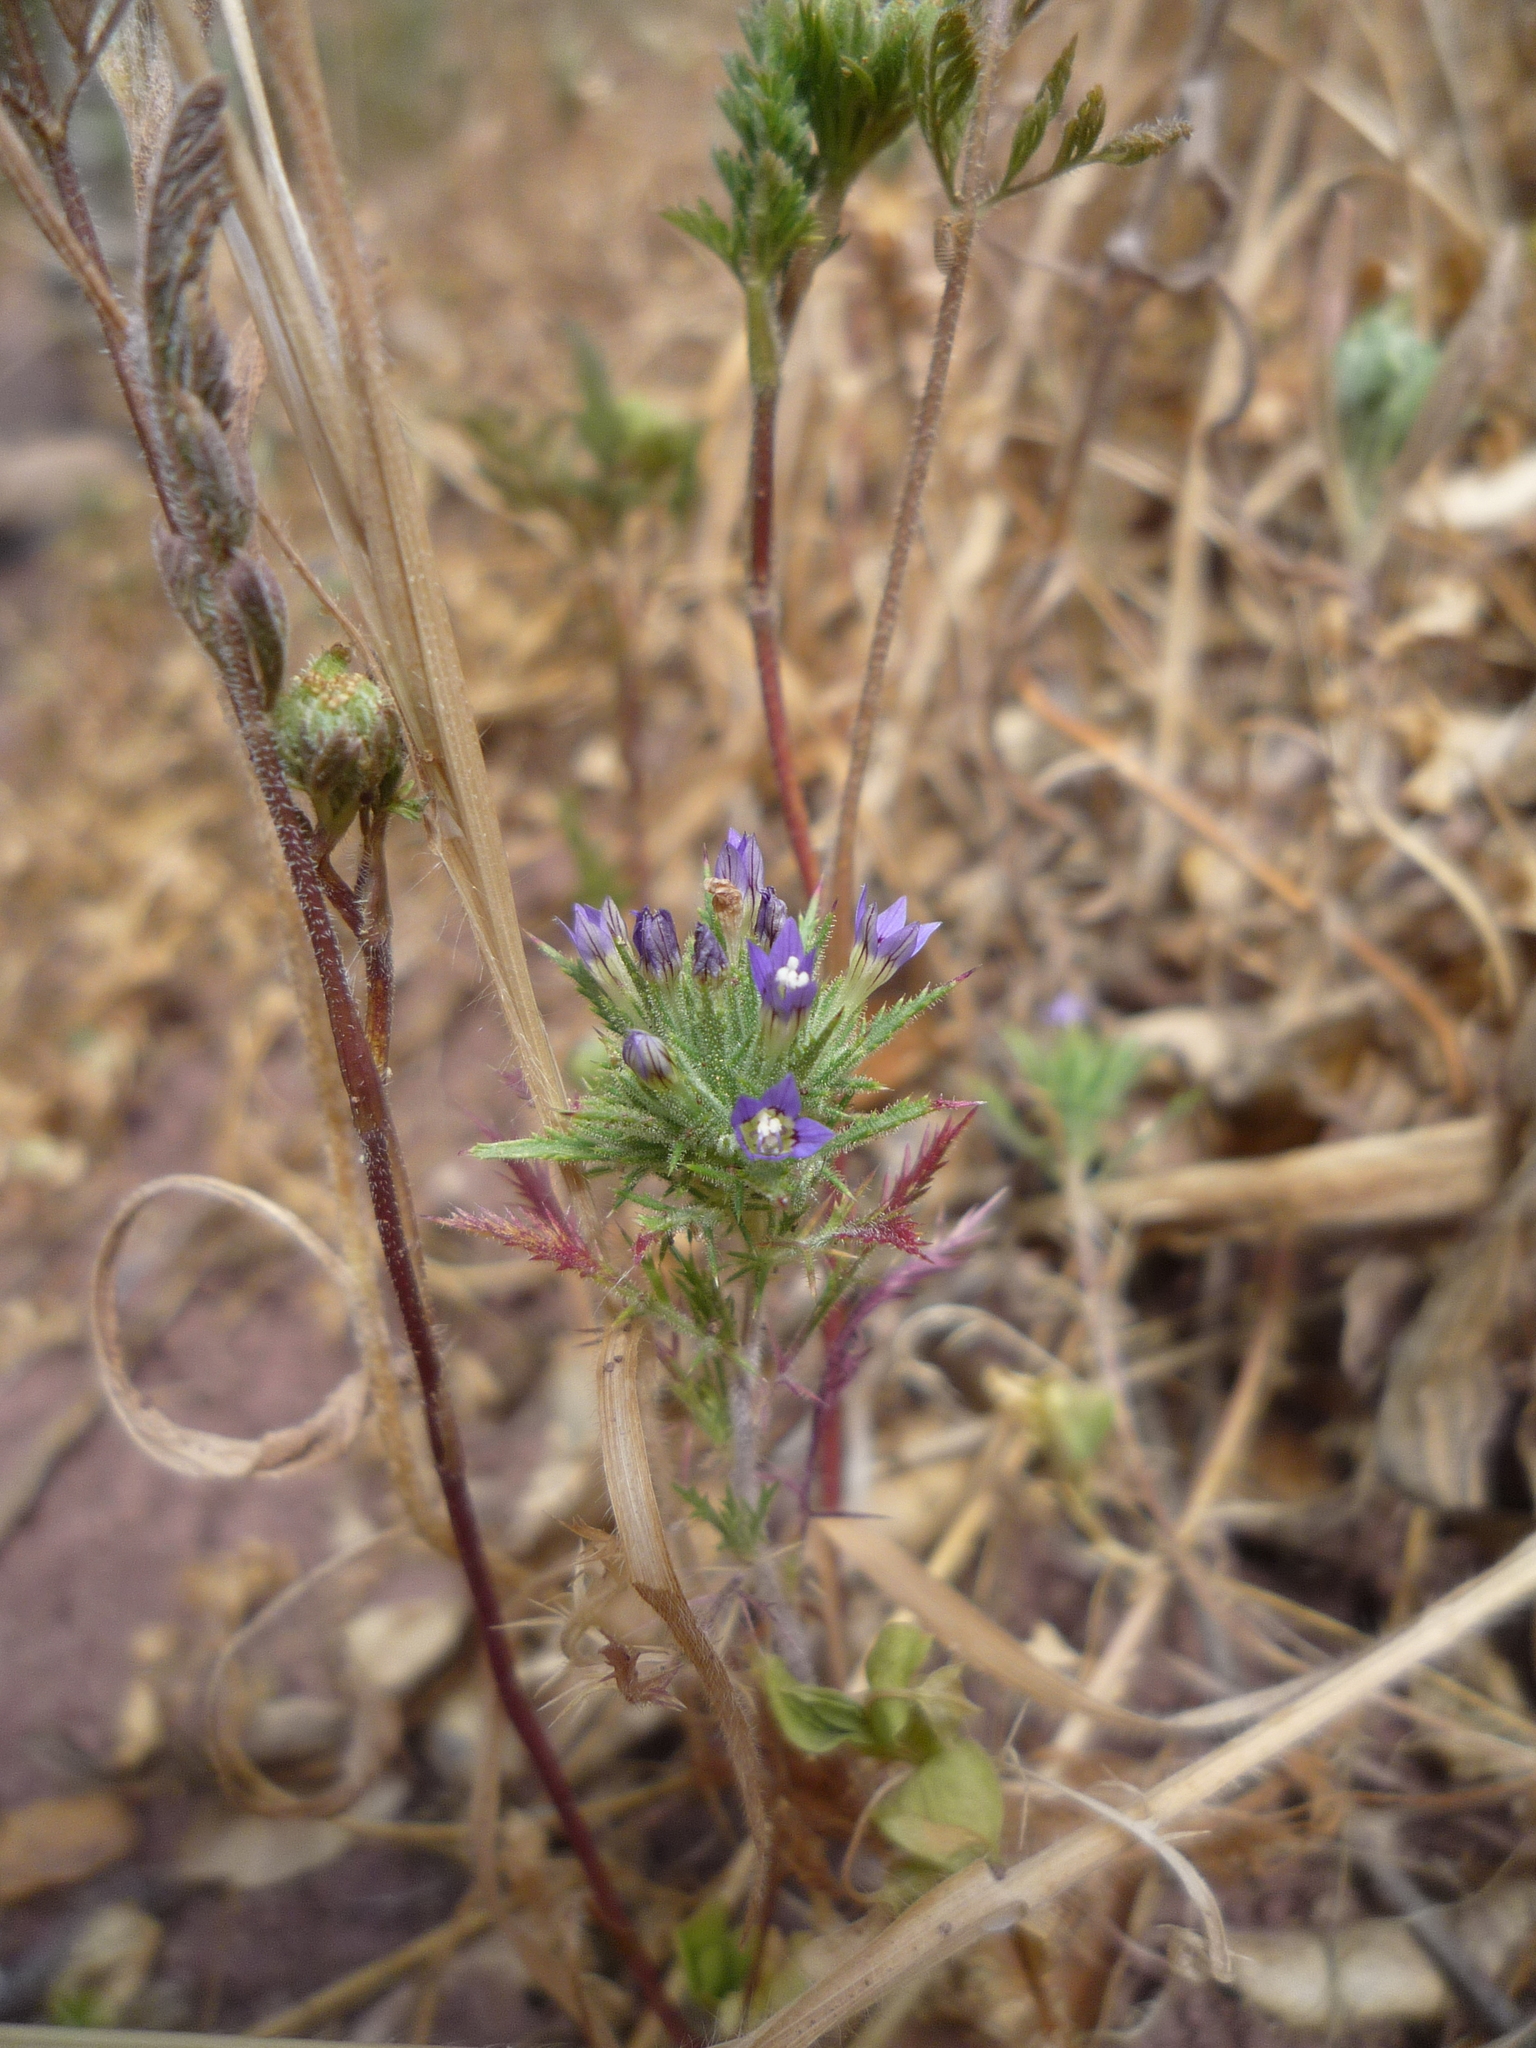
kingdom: Plantae
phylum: Tracheophyta
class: Magnoliopsida
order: Ericales
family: Polemoniaceae
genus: Navarretia
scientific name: Navarretia pubescens
